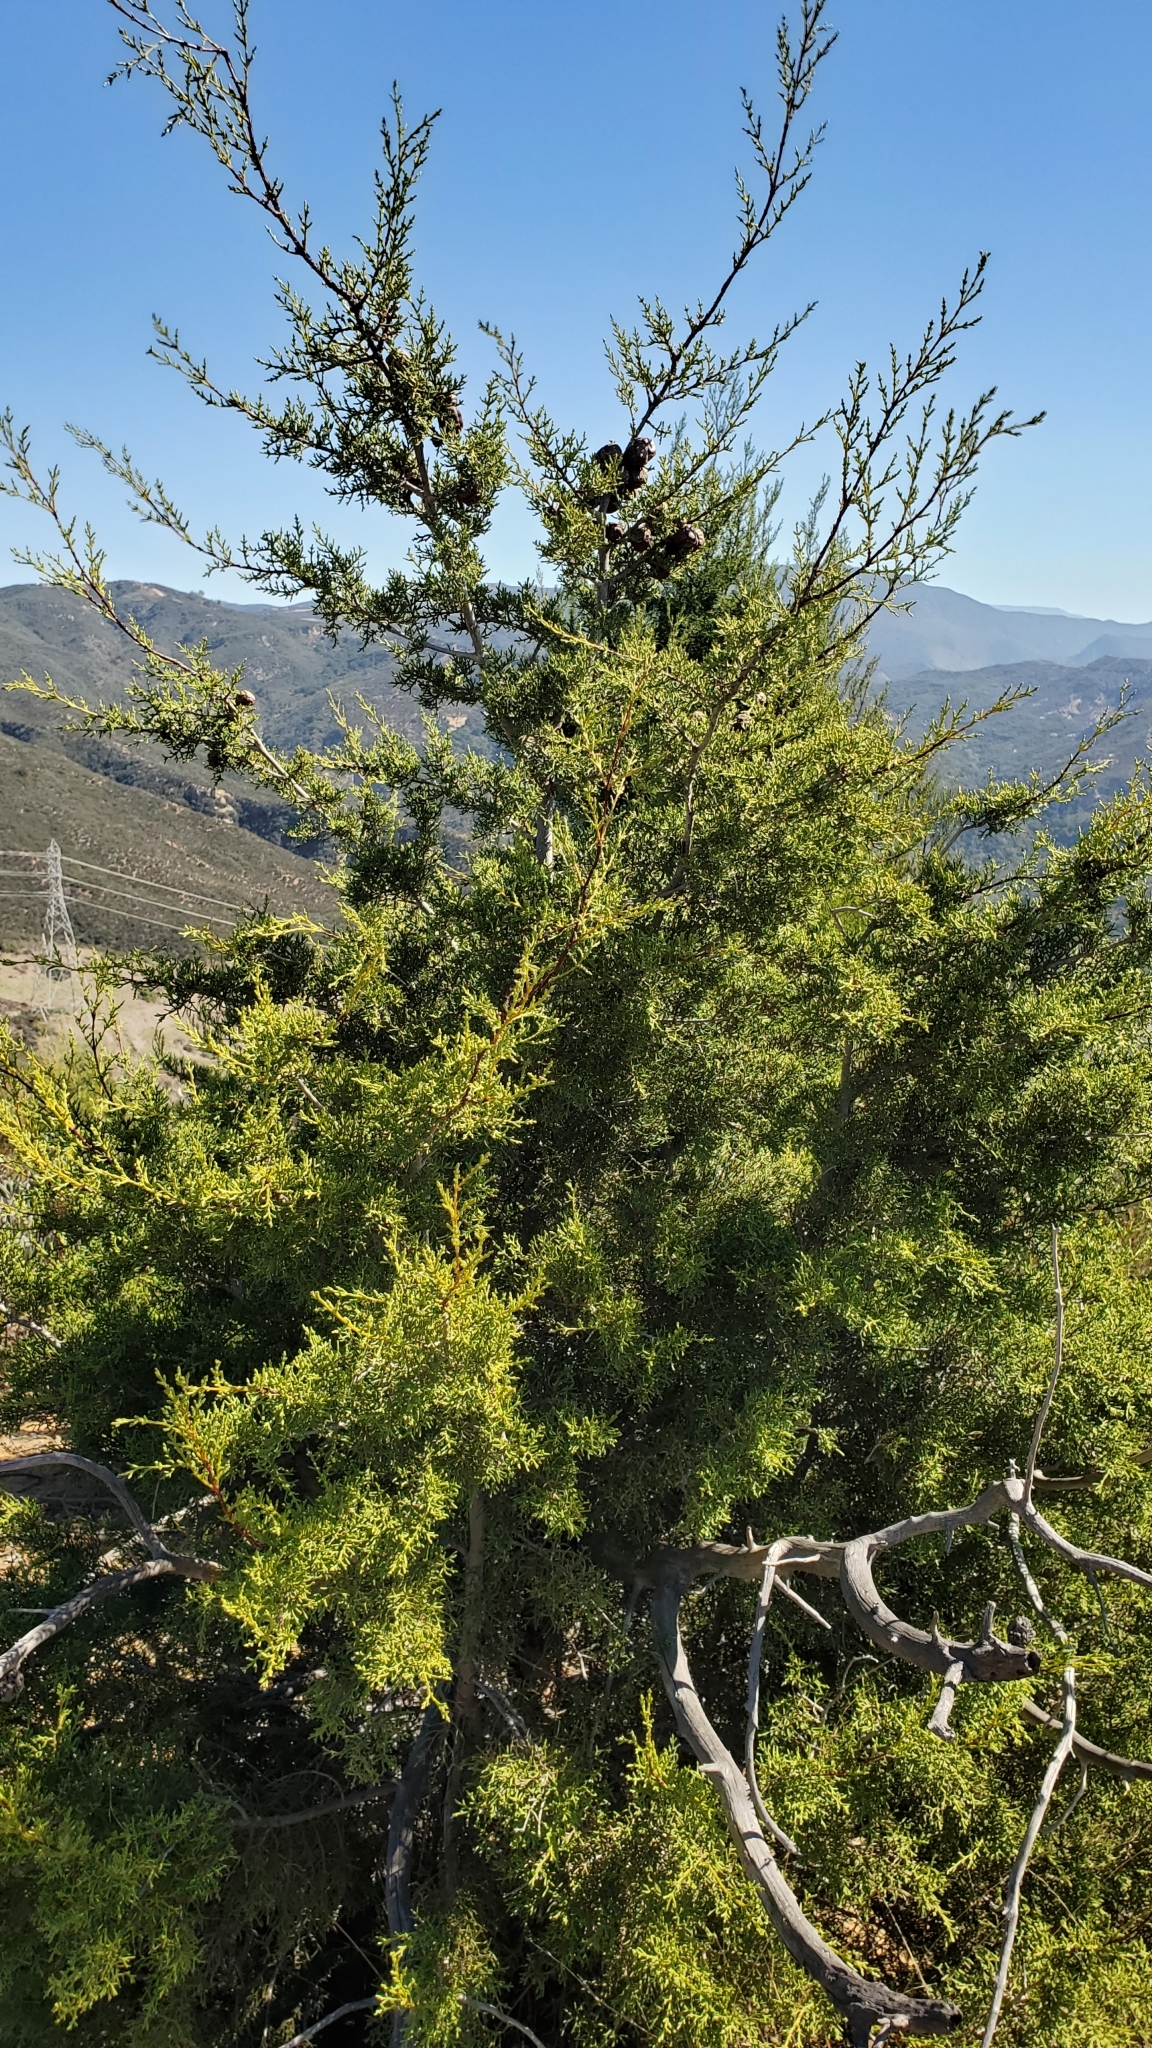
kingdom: Plantae
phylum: Tracheophyta
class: Pinopsida
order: Pinales
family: Cupressaceae
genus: Cupressus
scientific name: Cupressus guadalupensis
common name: Forbes cypress
